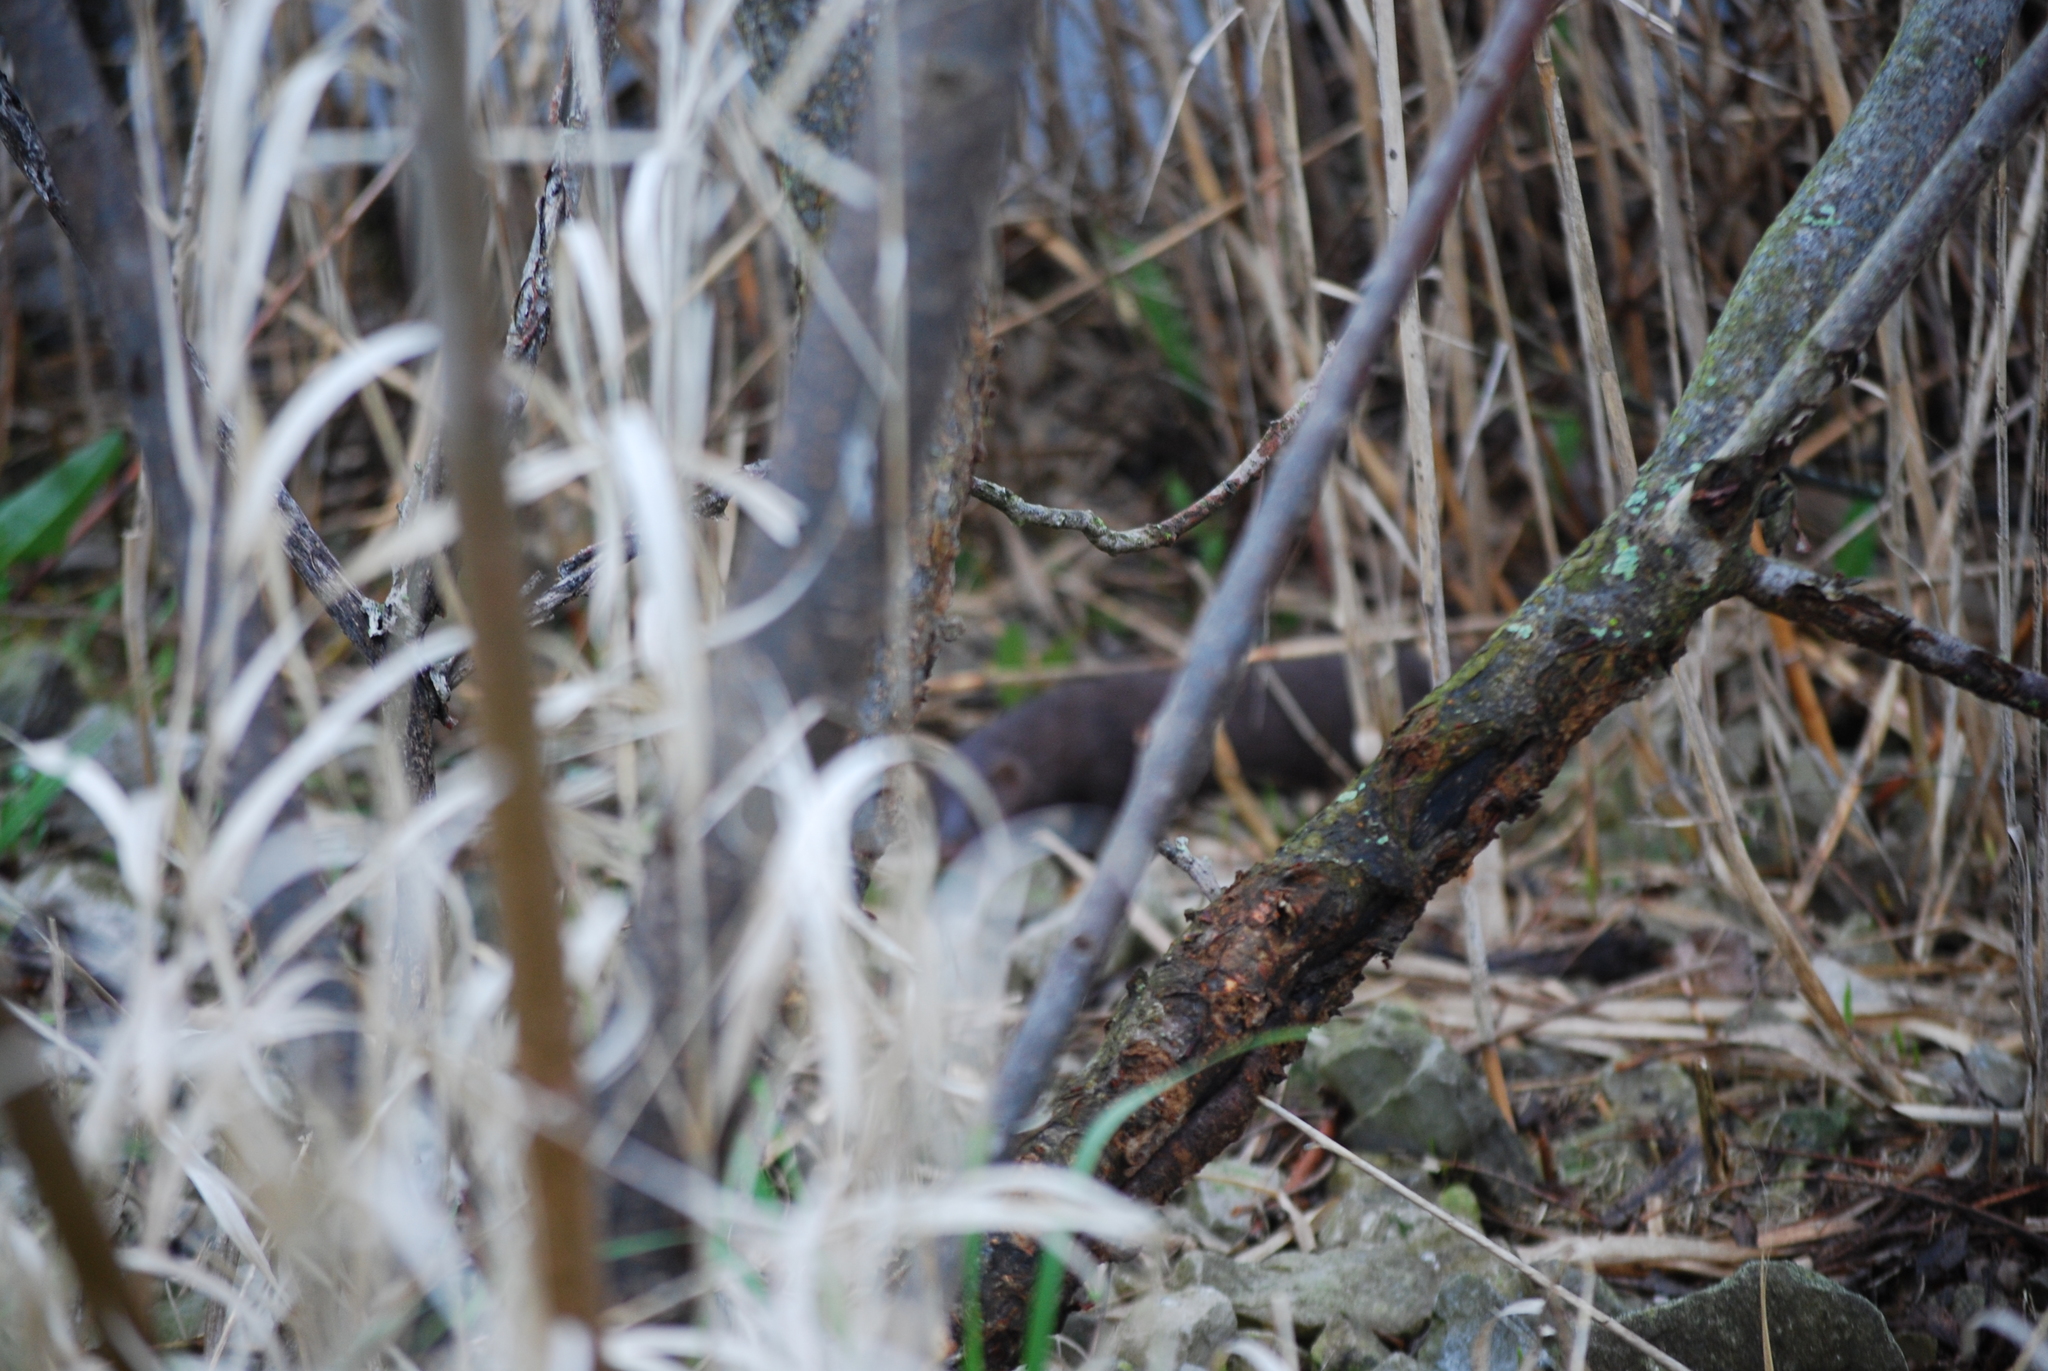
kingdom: Animalia
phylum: Chordata
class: Mammalia
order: Carnivora
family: Mustelidae
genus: Mustela
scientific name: Mustela
